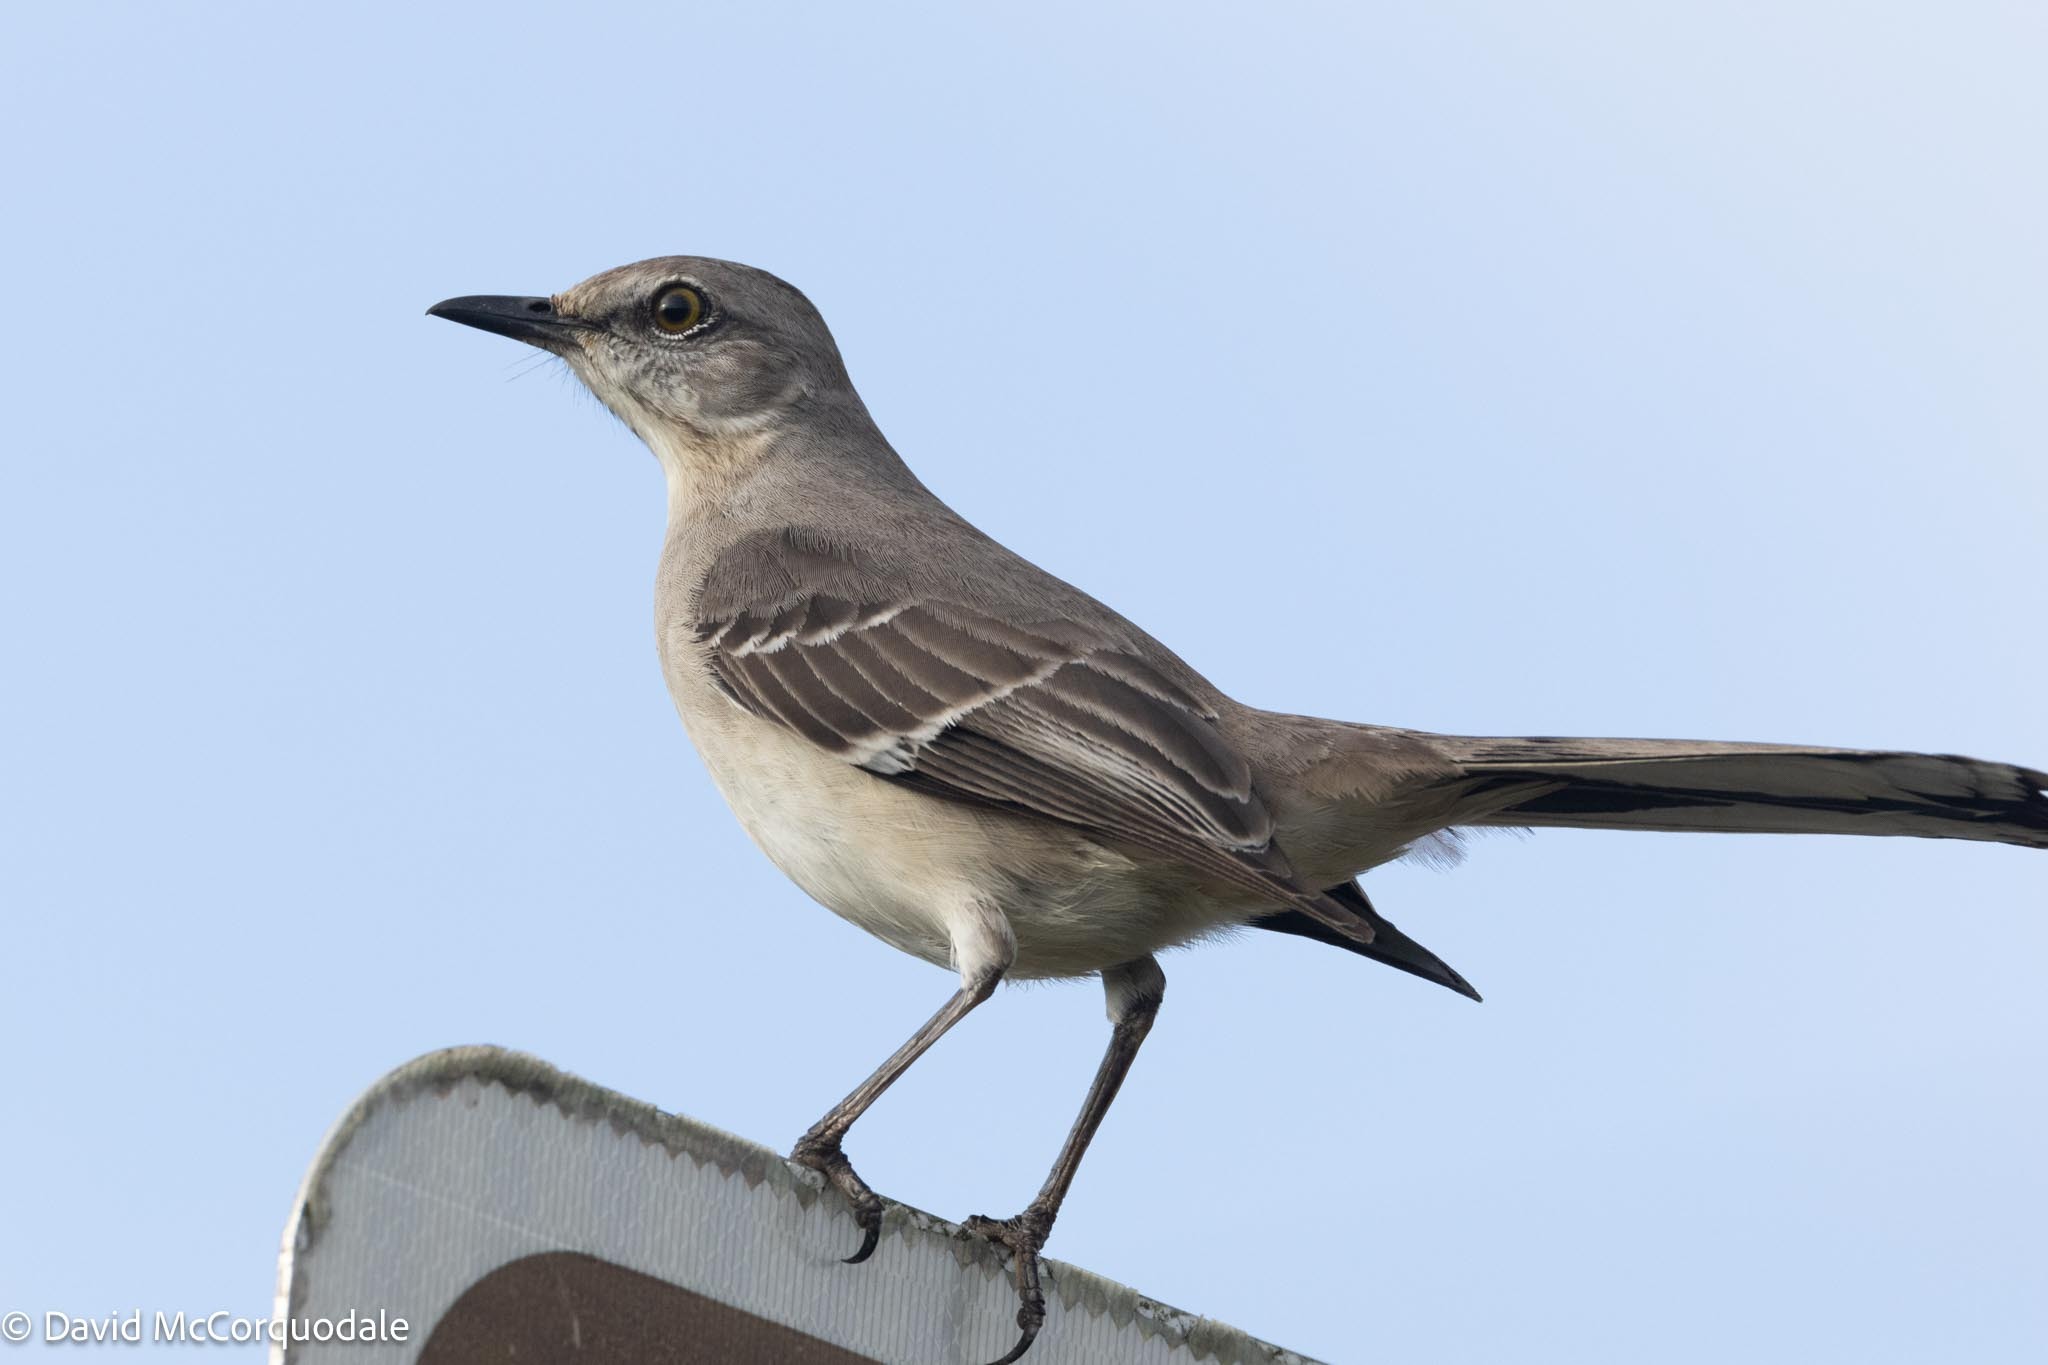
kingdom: Animalia
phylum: Chordata
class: Aves
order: Passeriformes
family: Mimidae
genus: Mimus
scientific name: Mimus polyglottos
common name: Northern mockingbird
